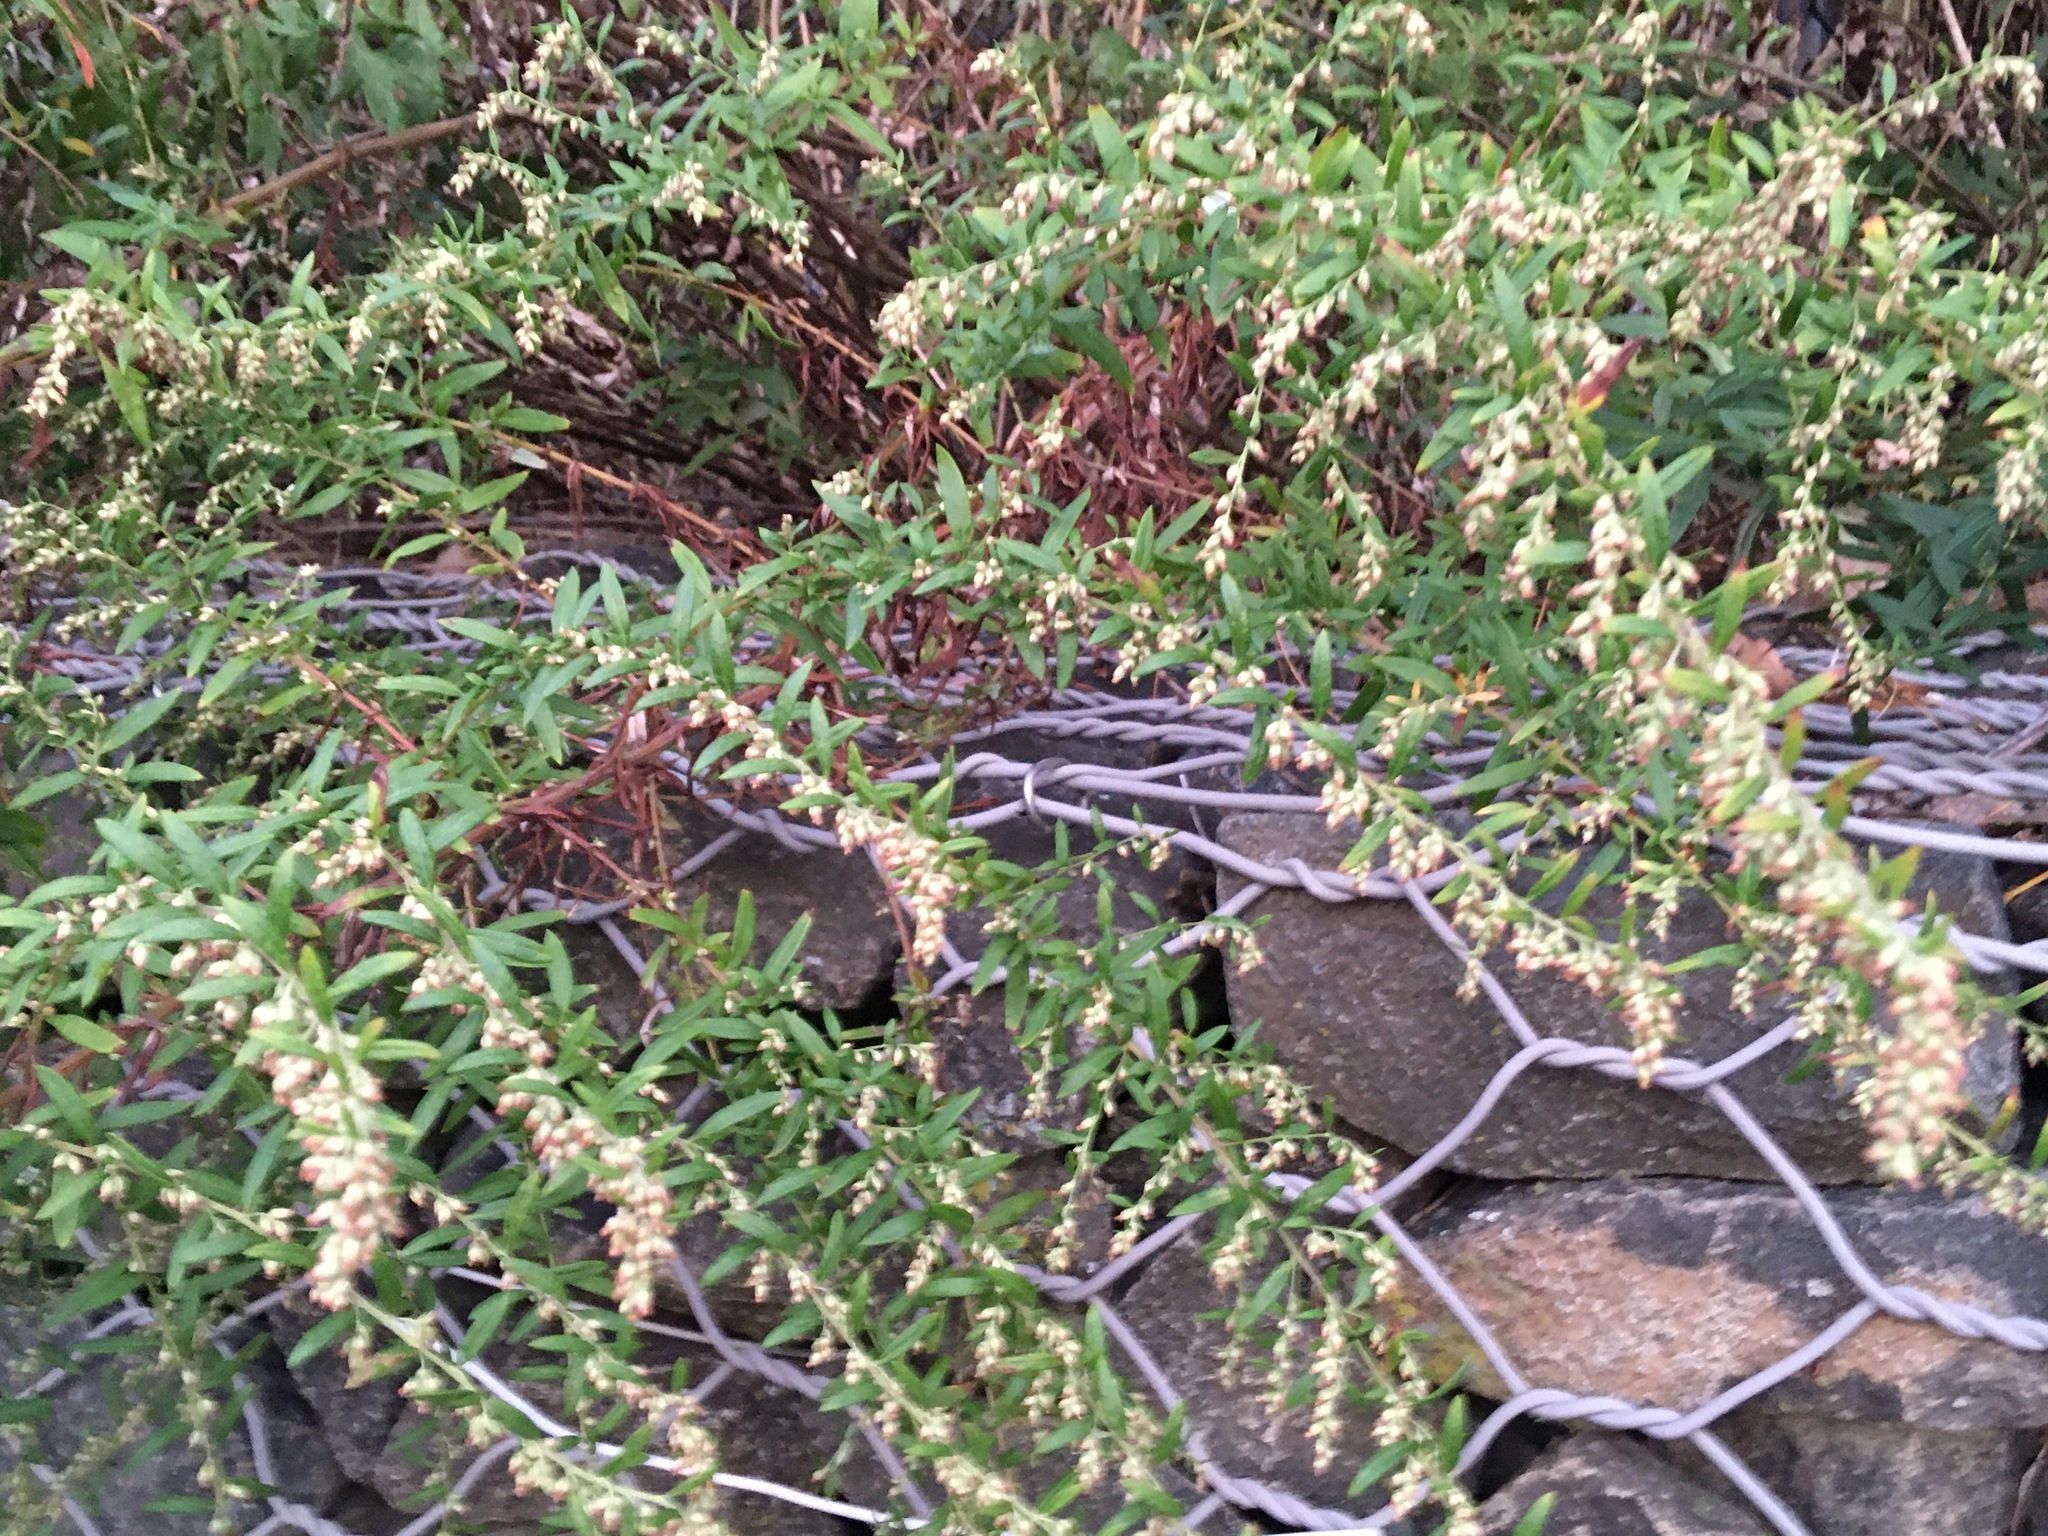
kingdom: Plantae
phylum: Tracheophyta
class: Magnoliopsida
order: Asterales
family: Asteraceae
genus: Artemisia
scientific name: Artemisia vulgaris
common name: Mugwort
